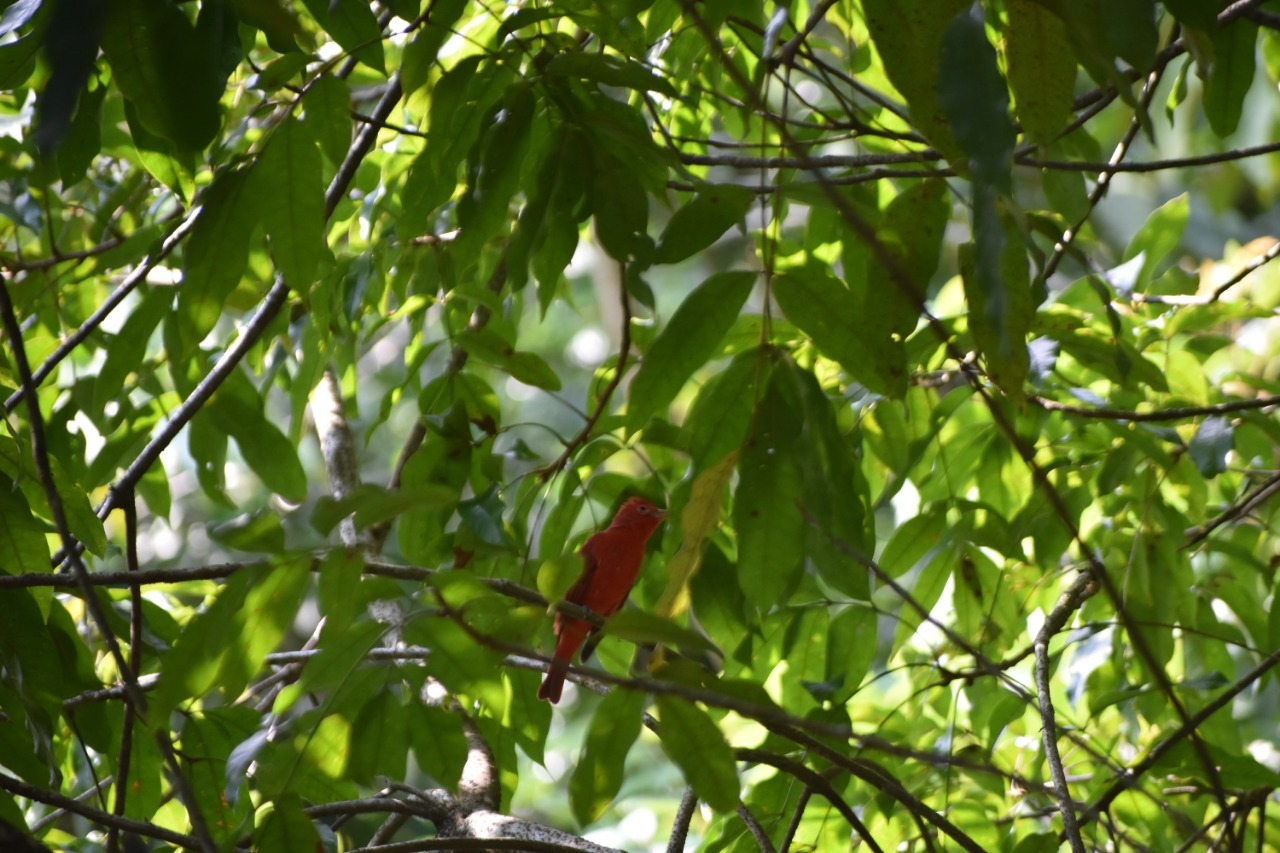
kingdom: Animalia
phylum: Chordata
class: Aves
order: Passeriformes
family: Cardinalidae
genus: Piranga
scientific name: Piranga rubra
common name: Summer tanager
